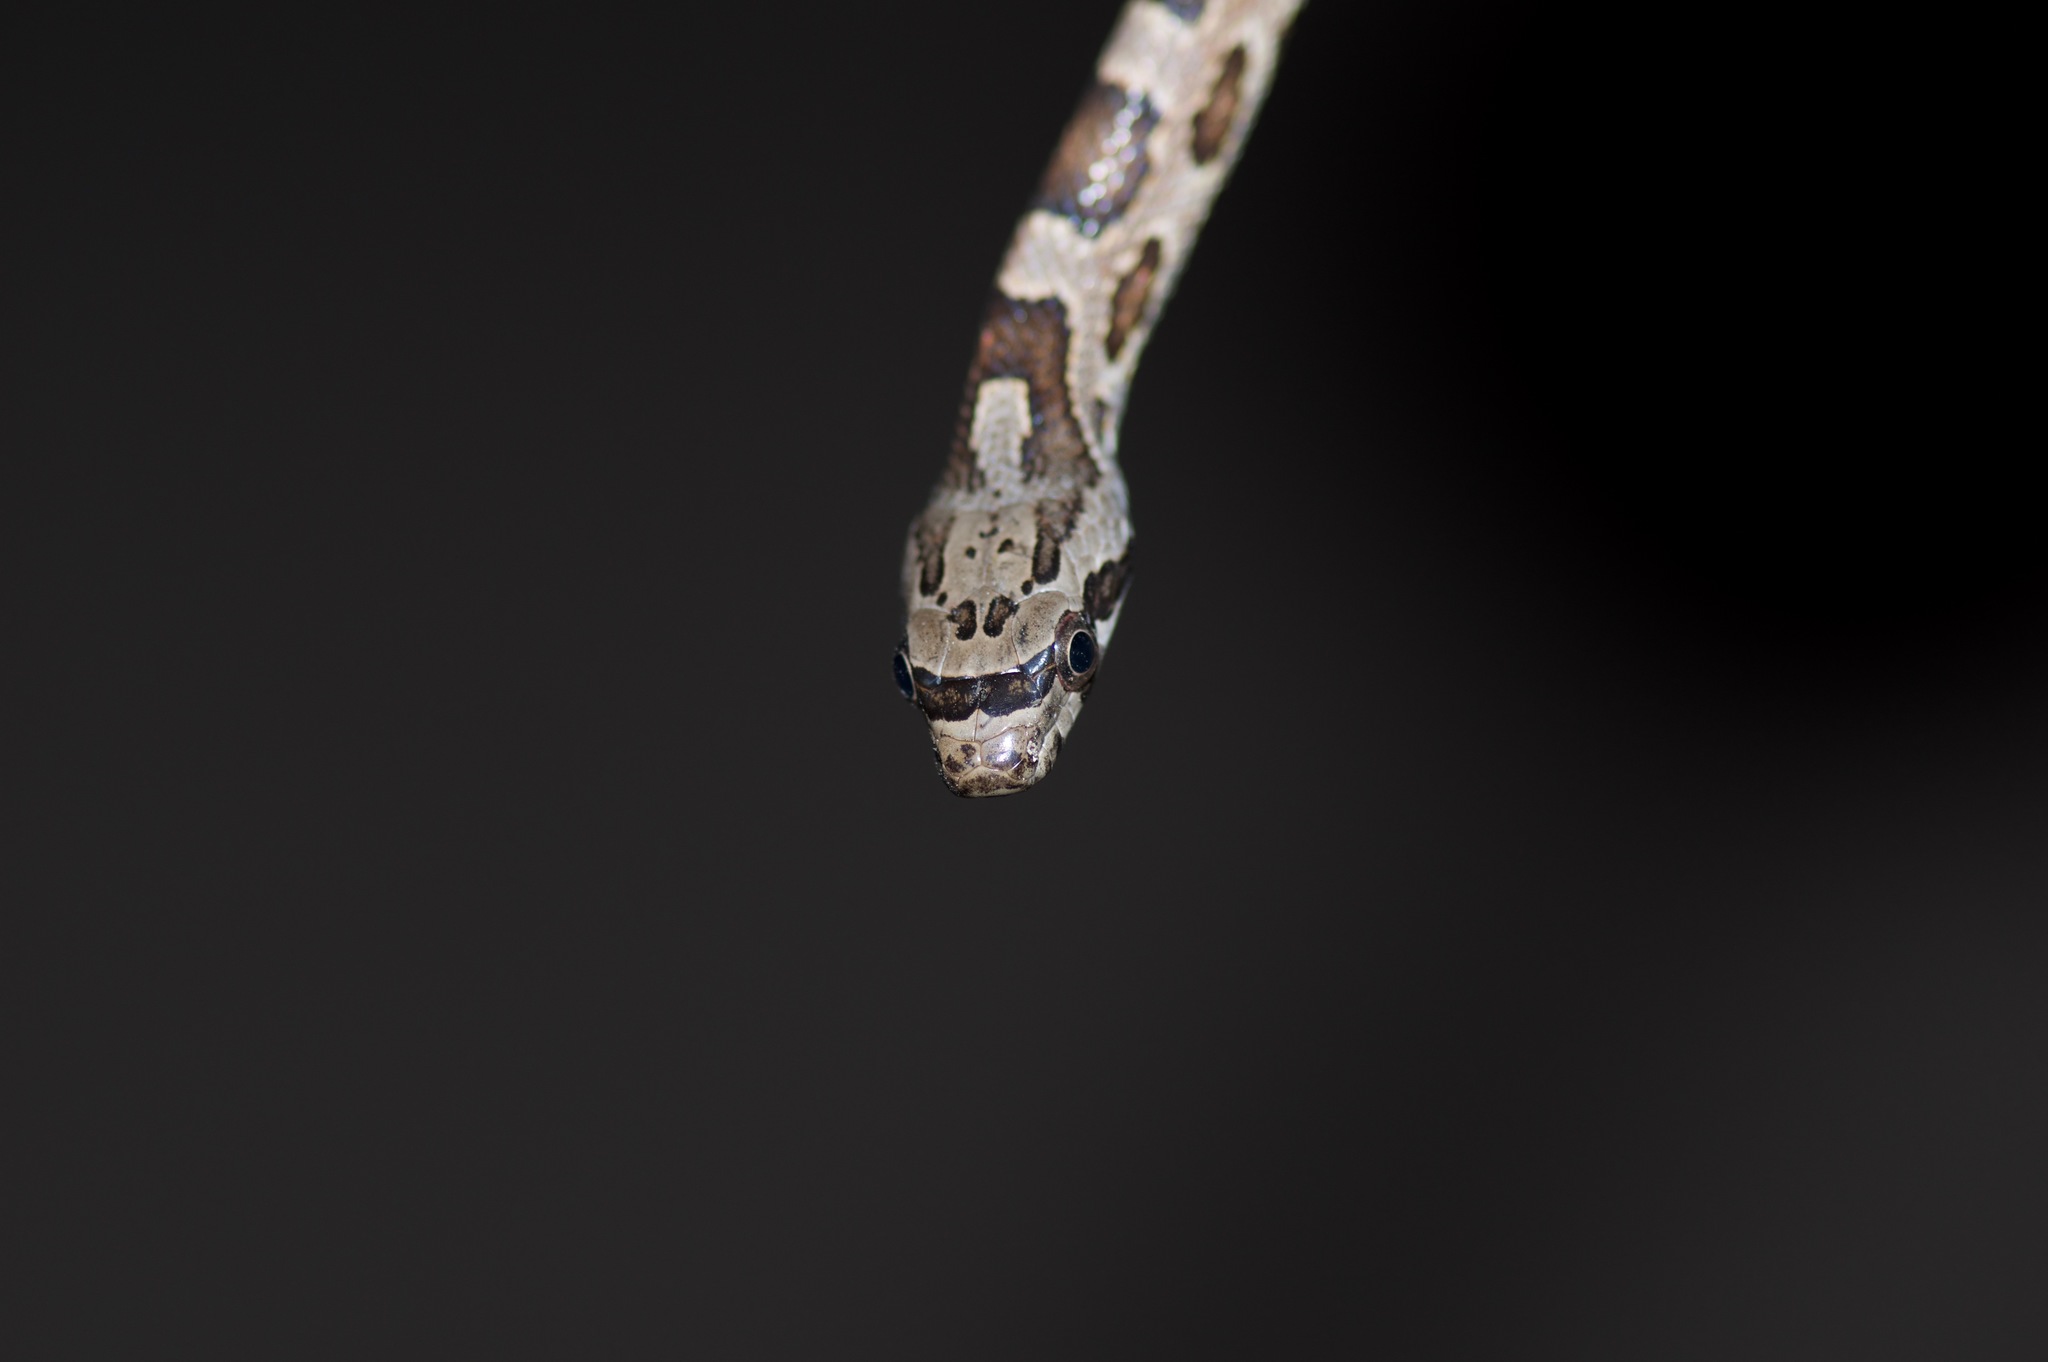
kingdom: Animalia
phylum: Chordata
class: Squamata
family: Colubridae
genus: Pantherophis
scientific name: Pantherophis obsoletus
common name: Black rat snake
